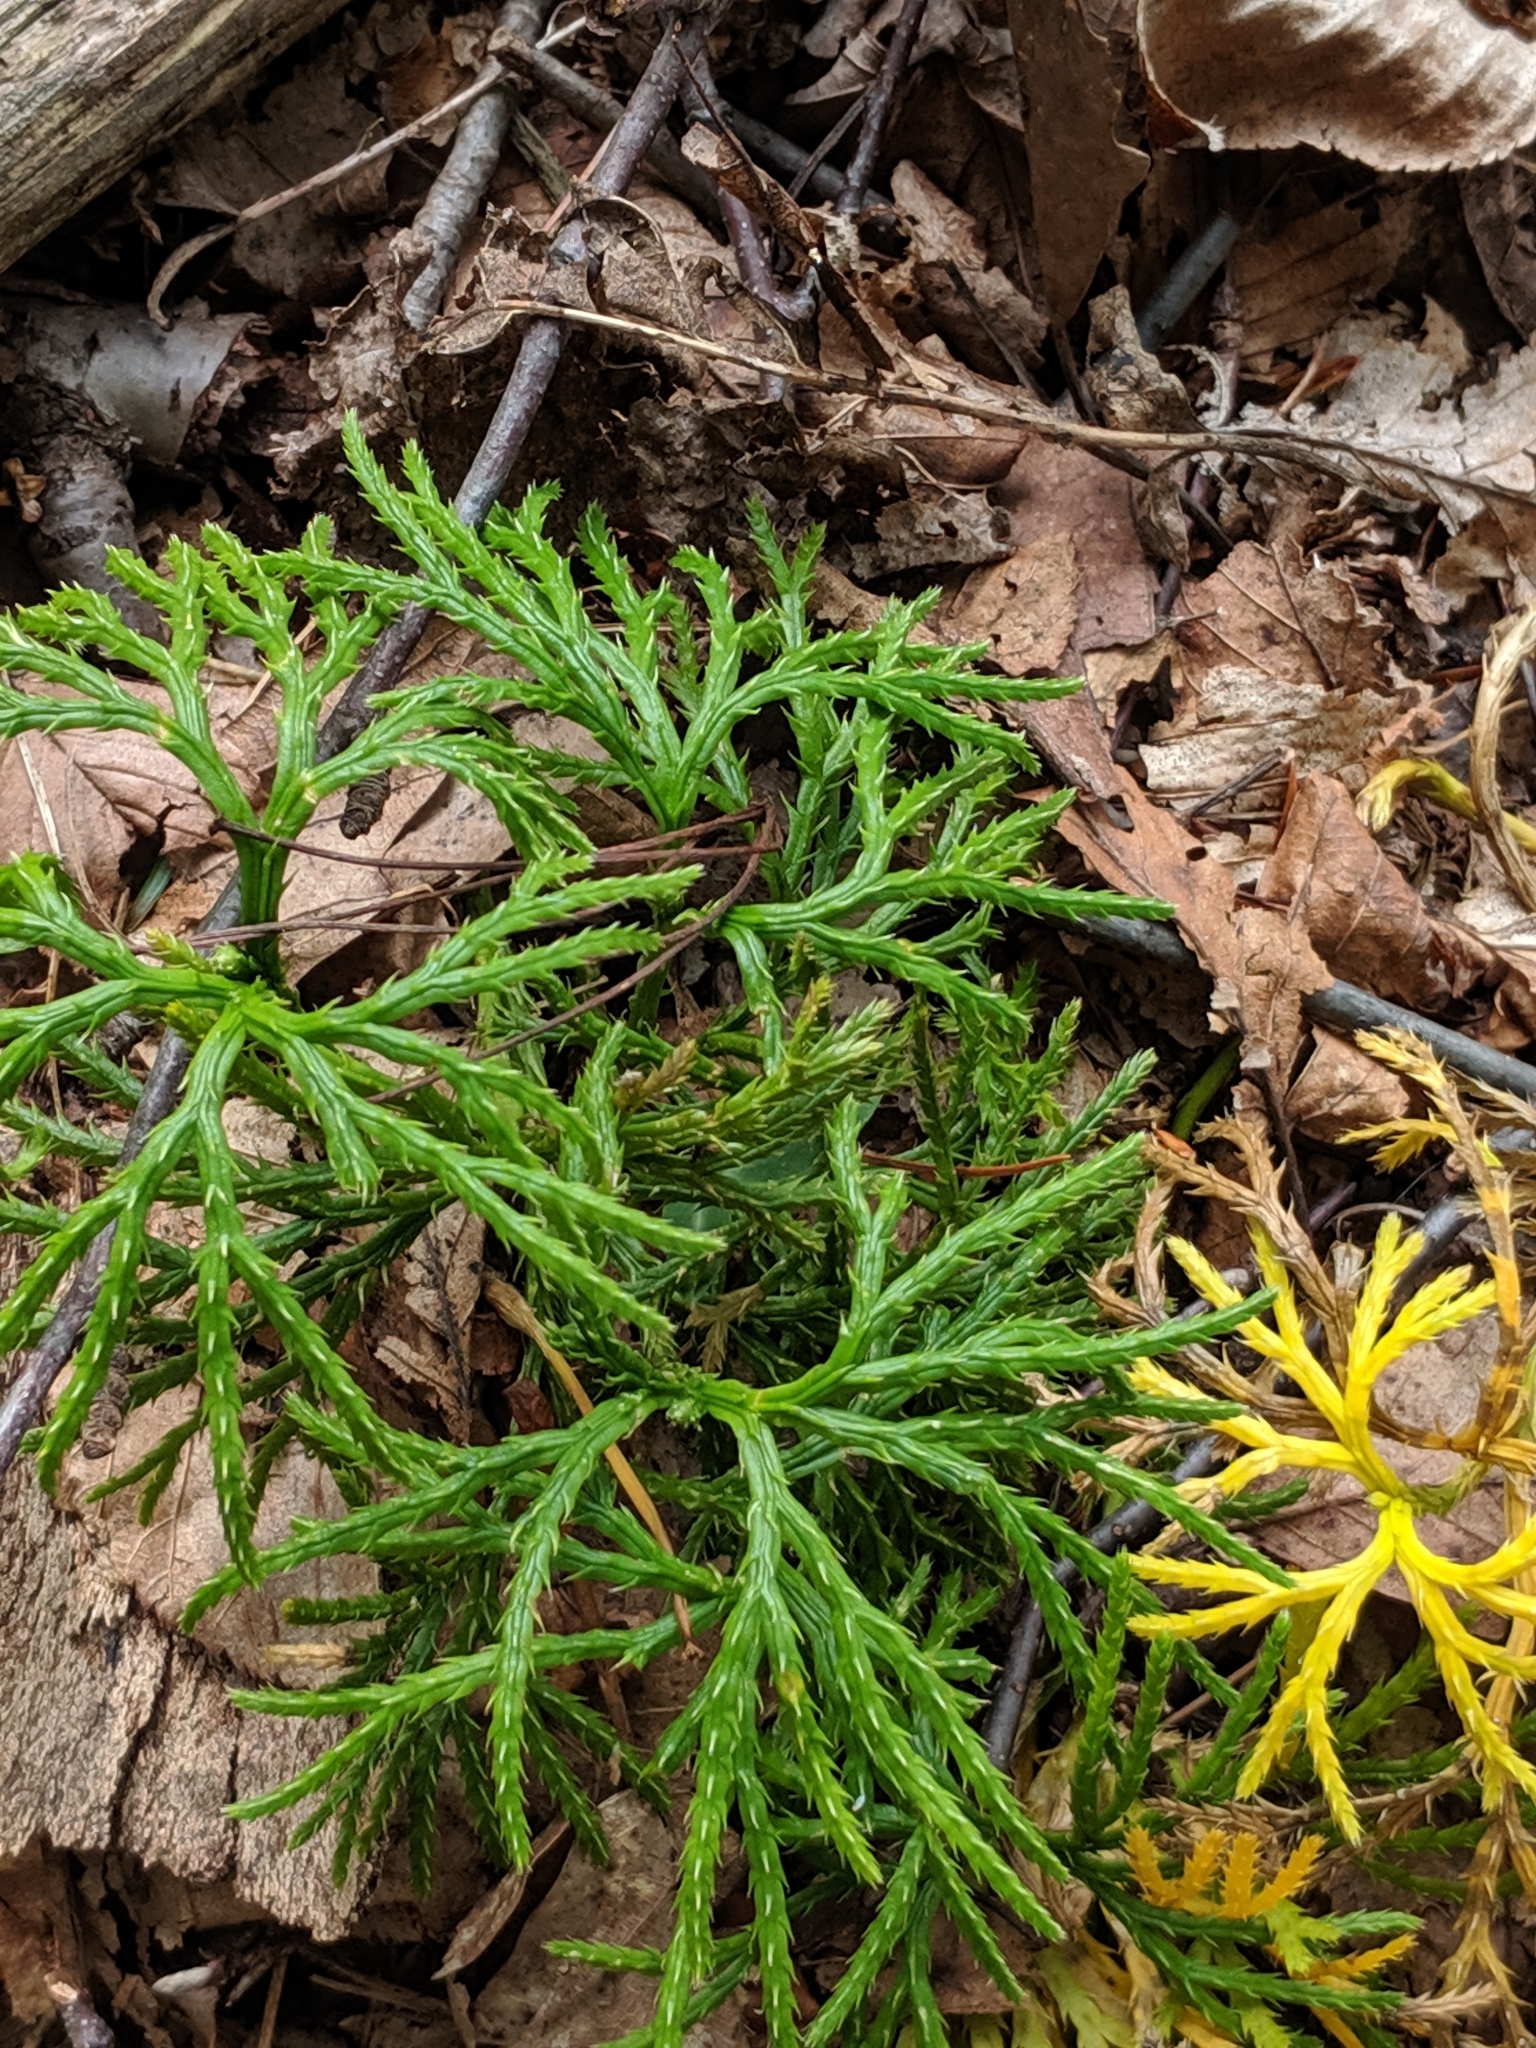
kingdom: Plantae
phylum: Tracheophyta
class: Lycopodiopsida
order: Lycopodiales
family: Lycopodiaceae
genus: Diphasiastrum
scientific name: Diphasiastrum digitatum
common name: Southern running-pine
